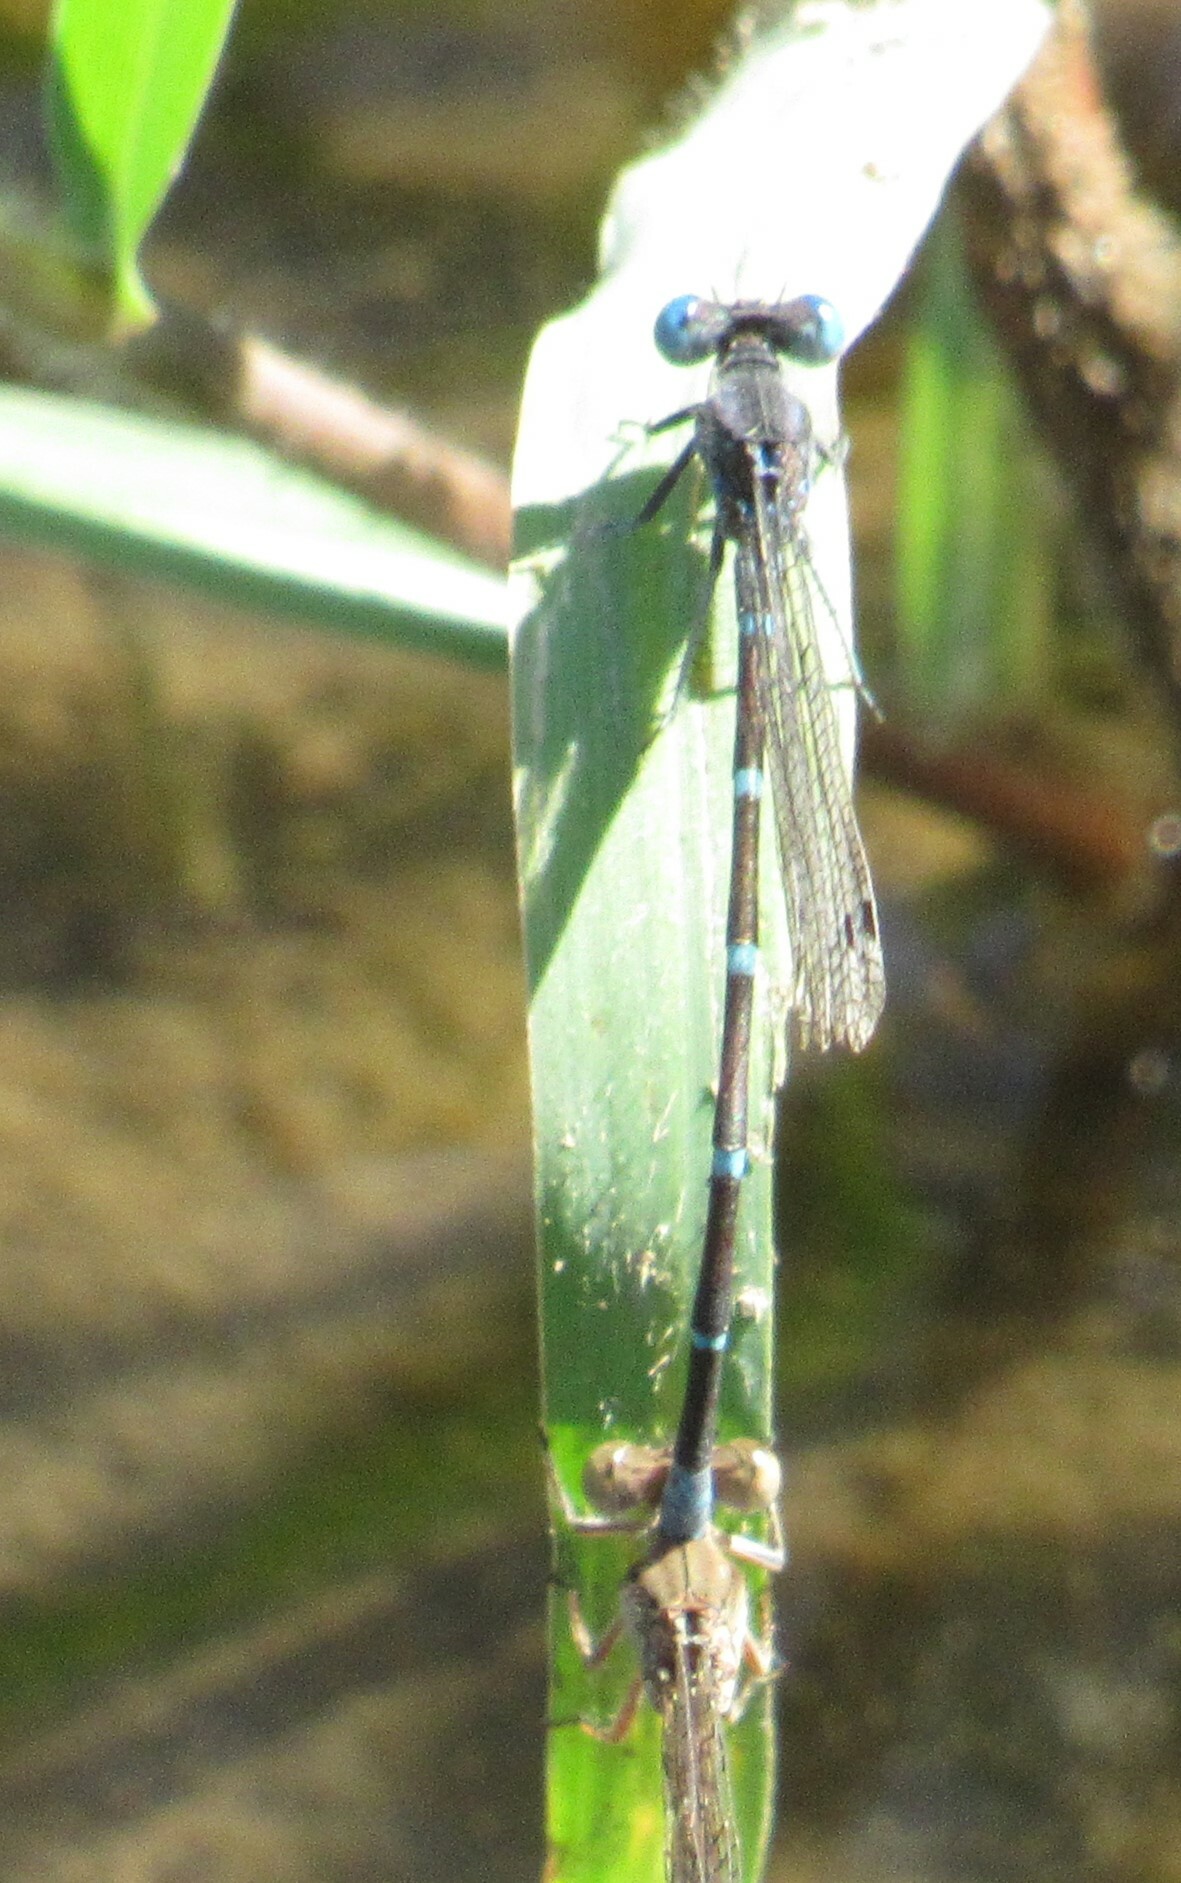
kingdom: Animalia
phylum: Arthropoda
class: Insecta
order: Odonata
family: Coenagrionidae
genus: Argia
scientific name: Argia sedula
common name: Blue-ringed dancer
